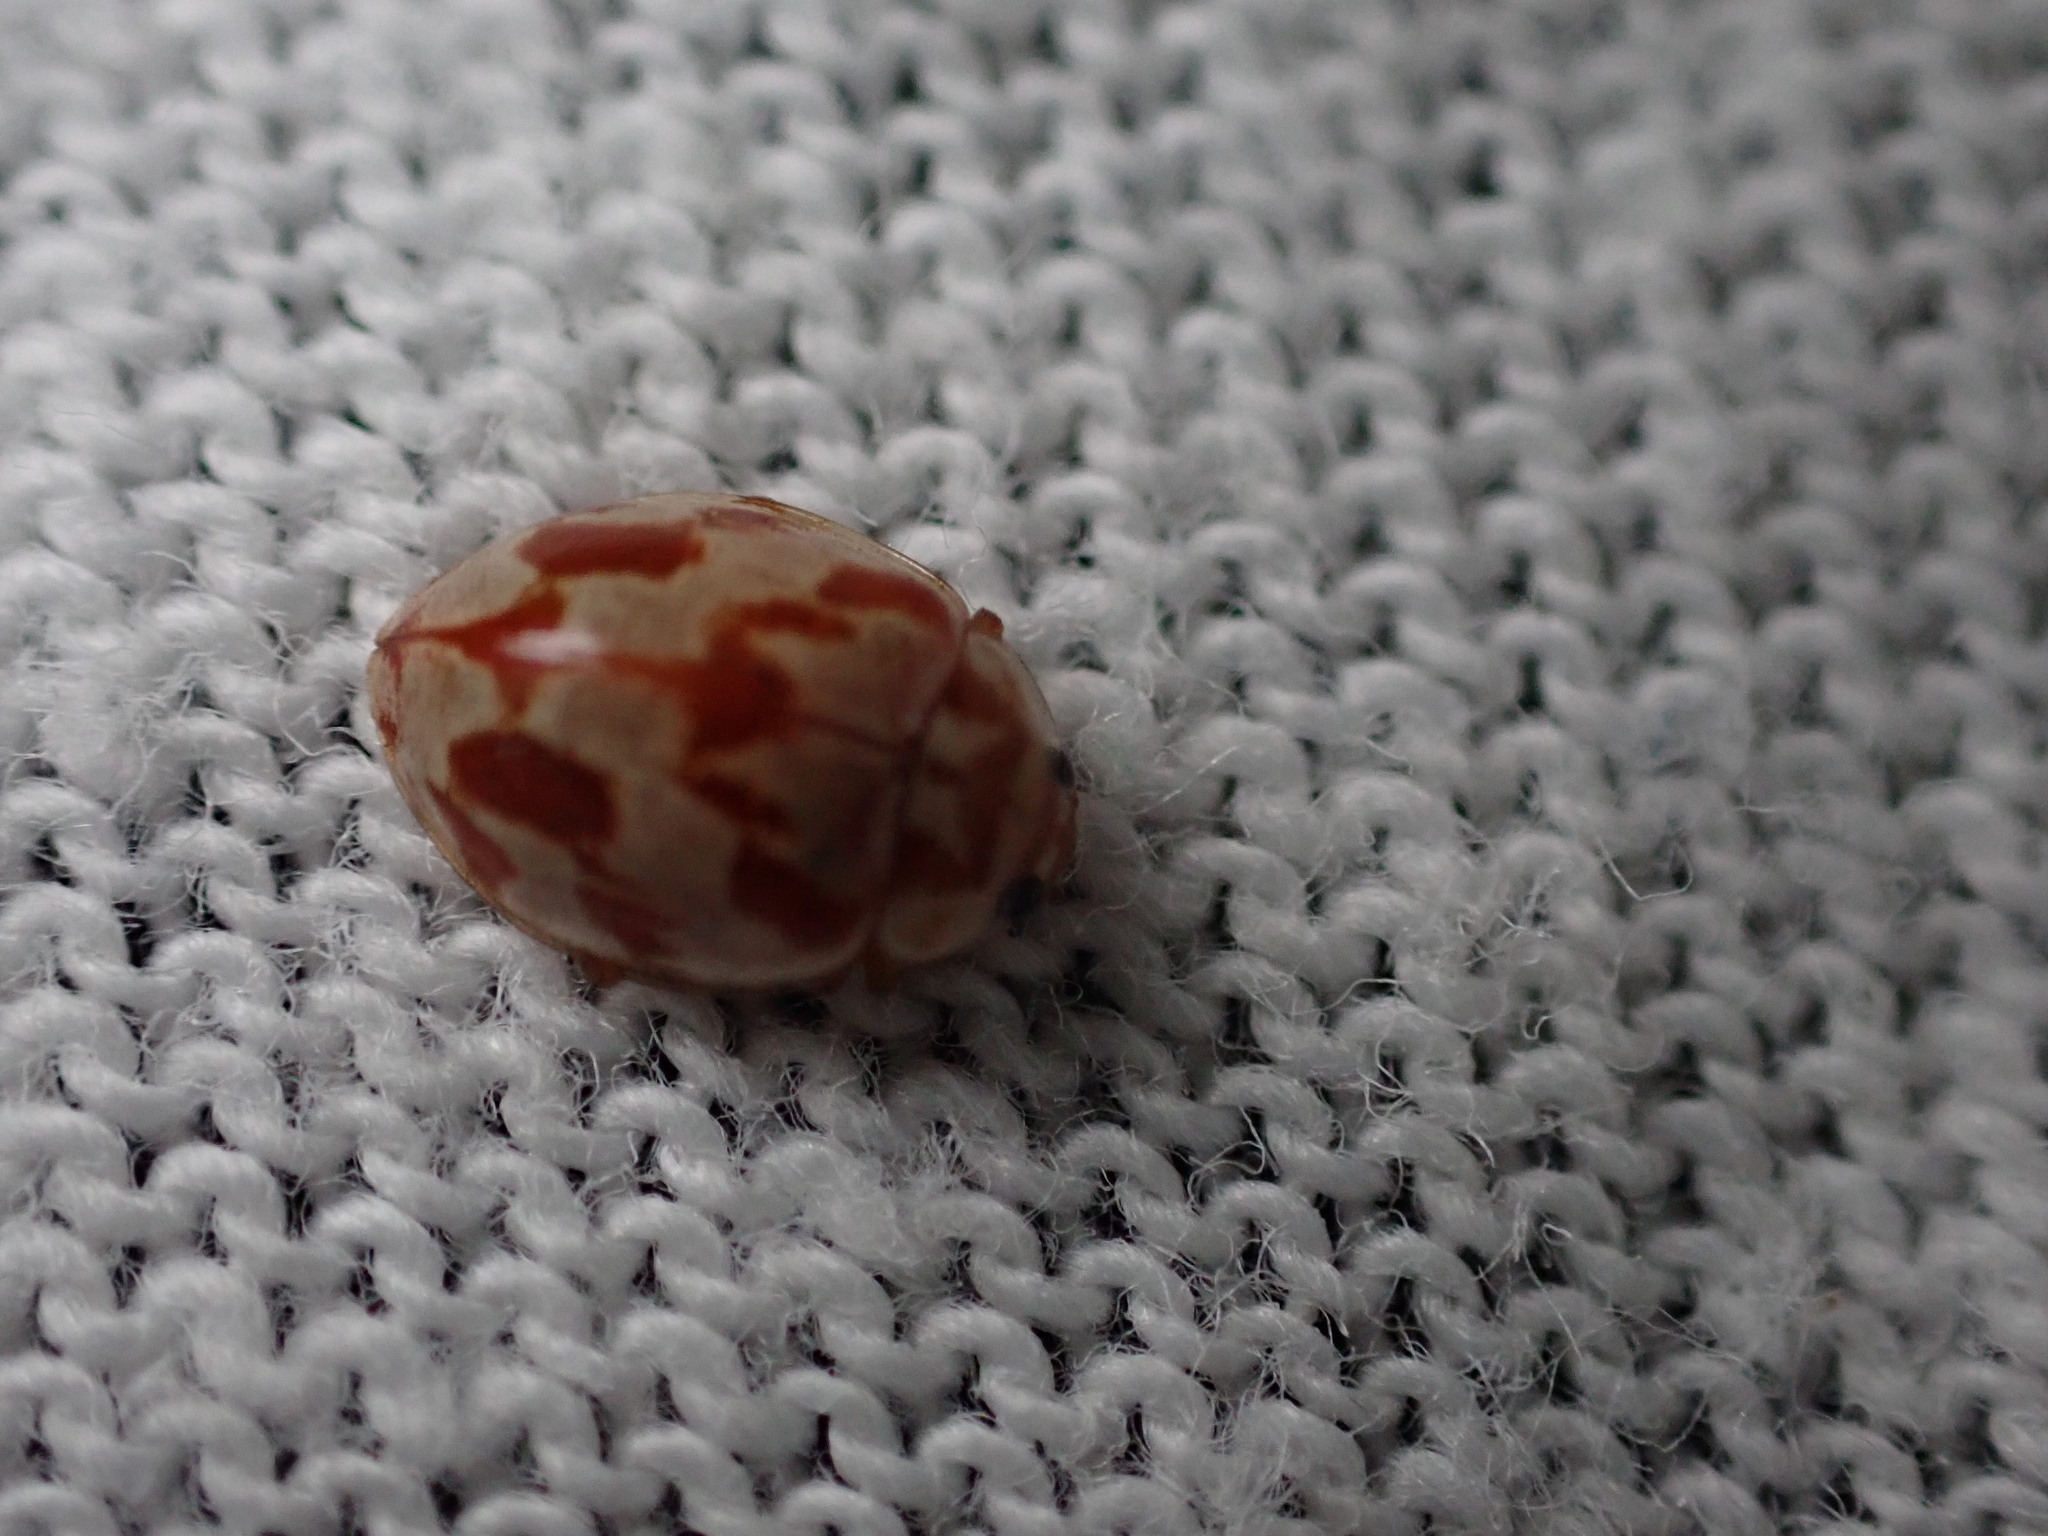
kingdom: Animalia
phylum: Arthropoda
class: Insecta
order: Coleoptera
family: Coccinellidae
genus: Myrrha
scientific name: Myrrha octodecimguttata
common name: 18-spot ladybird
